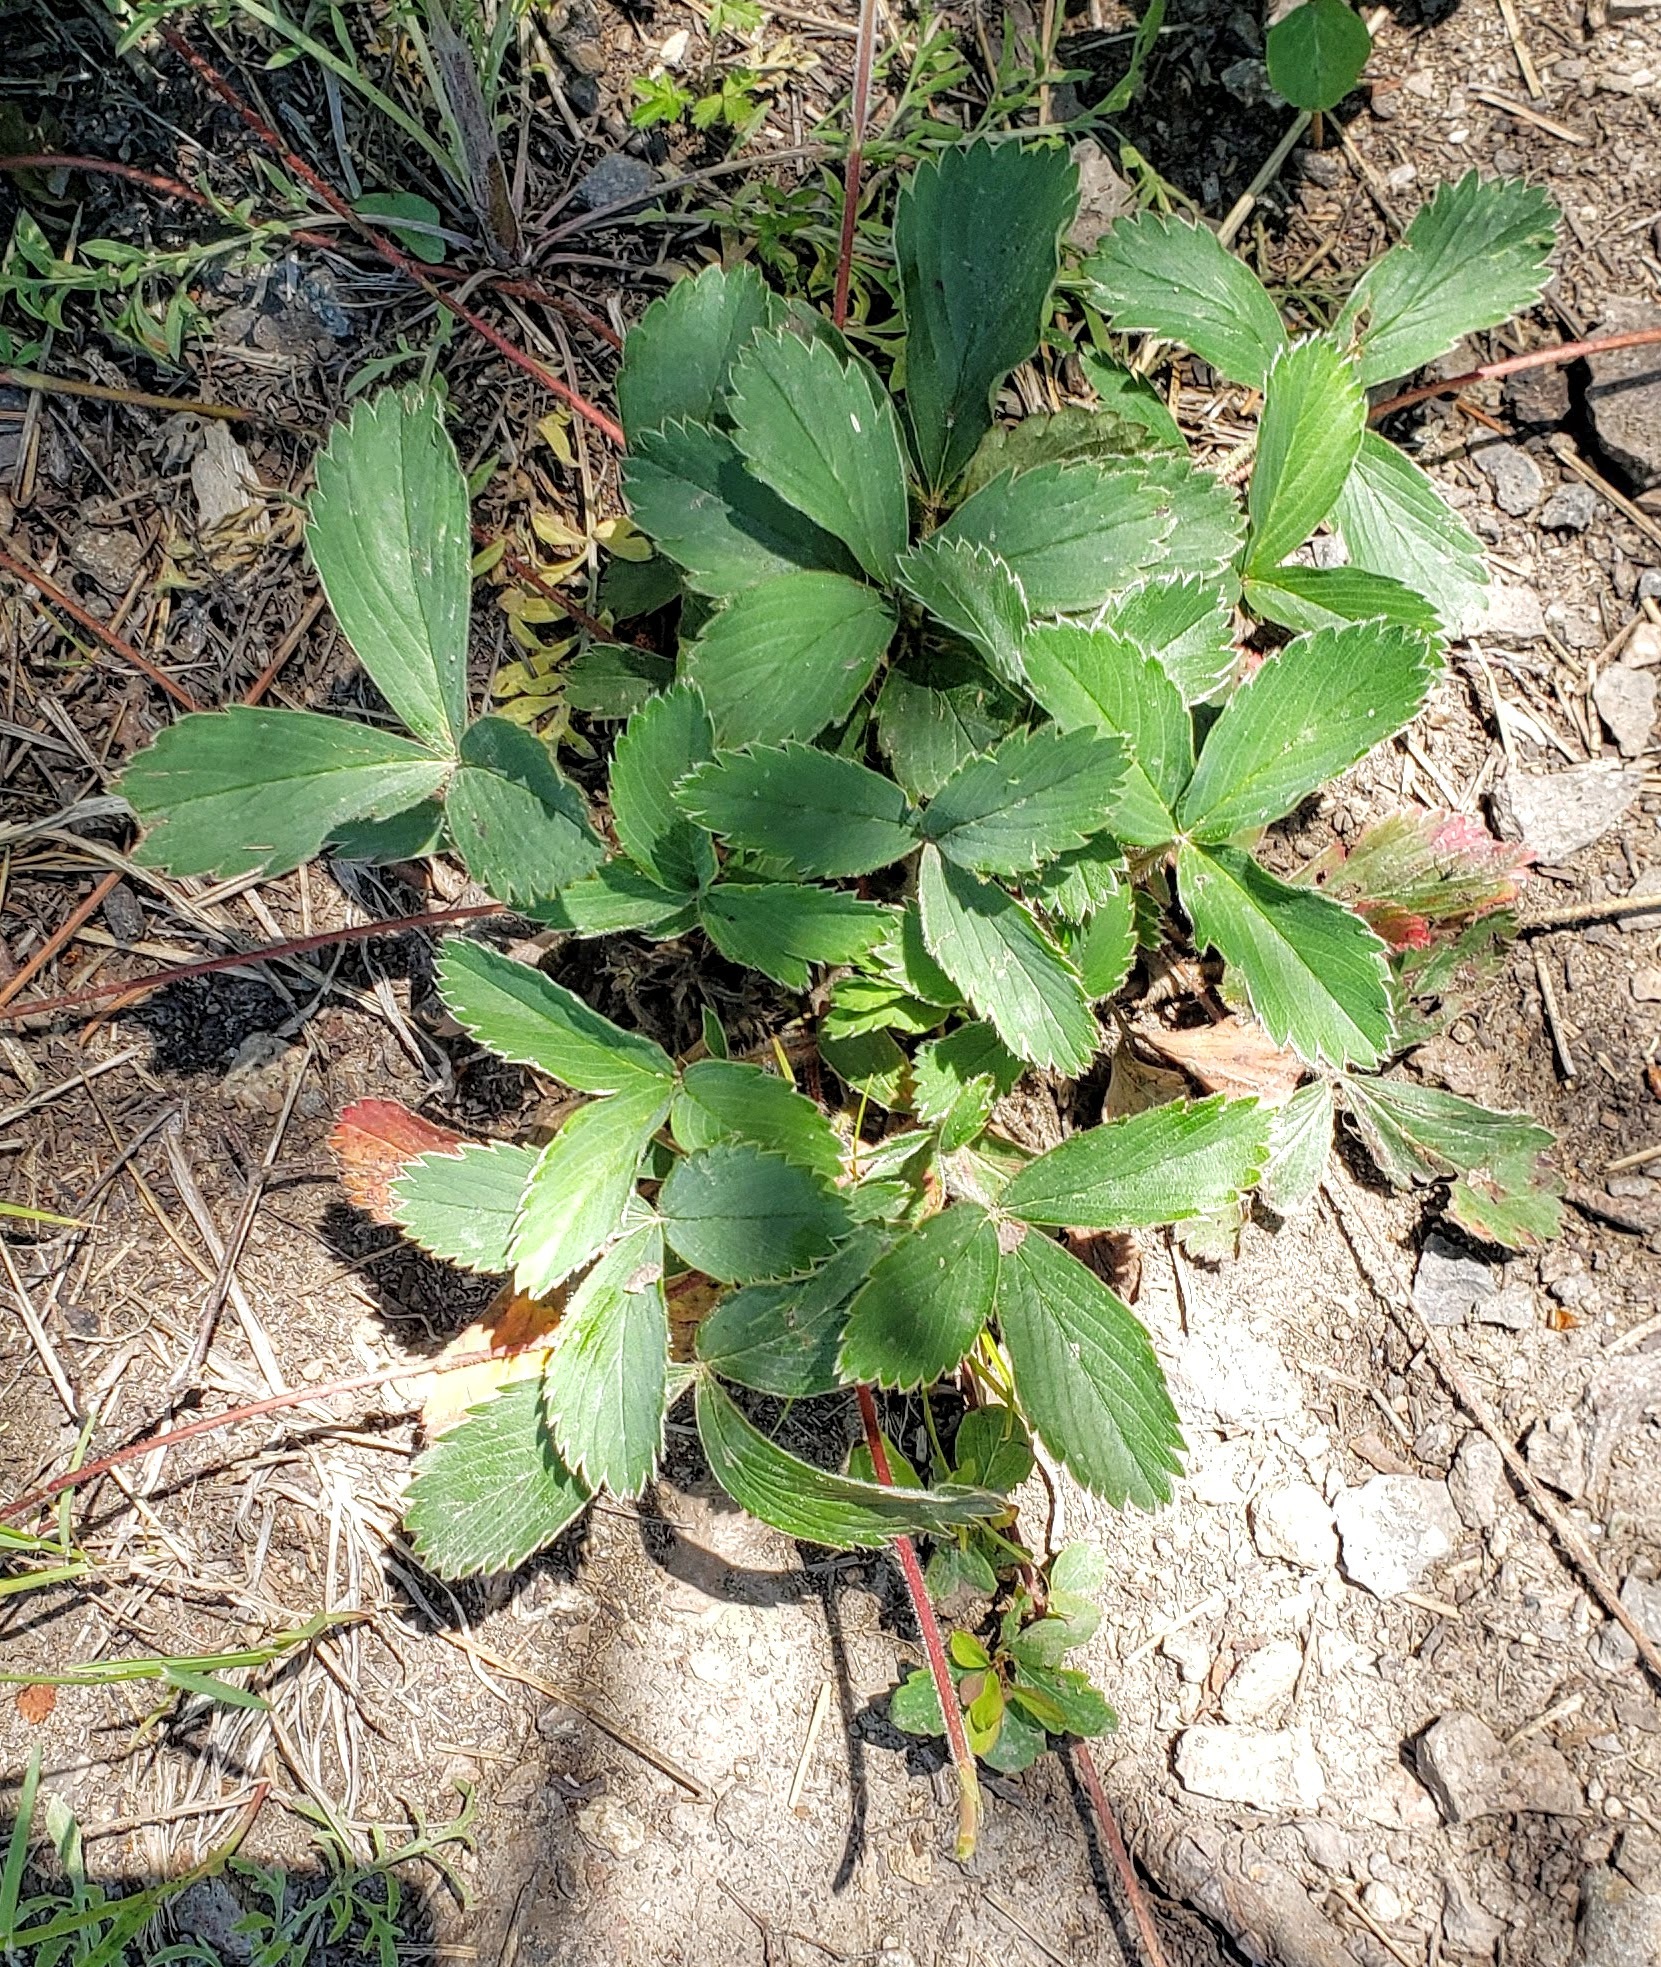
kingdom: Plantae
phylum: Tracheophyta
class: Magnoliopsida
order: Rosales
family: Rosaceae
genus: Fragaria
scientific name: Fragaria virginiana
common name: Thickleaved wild strawberry
